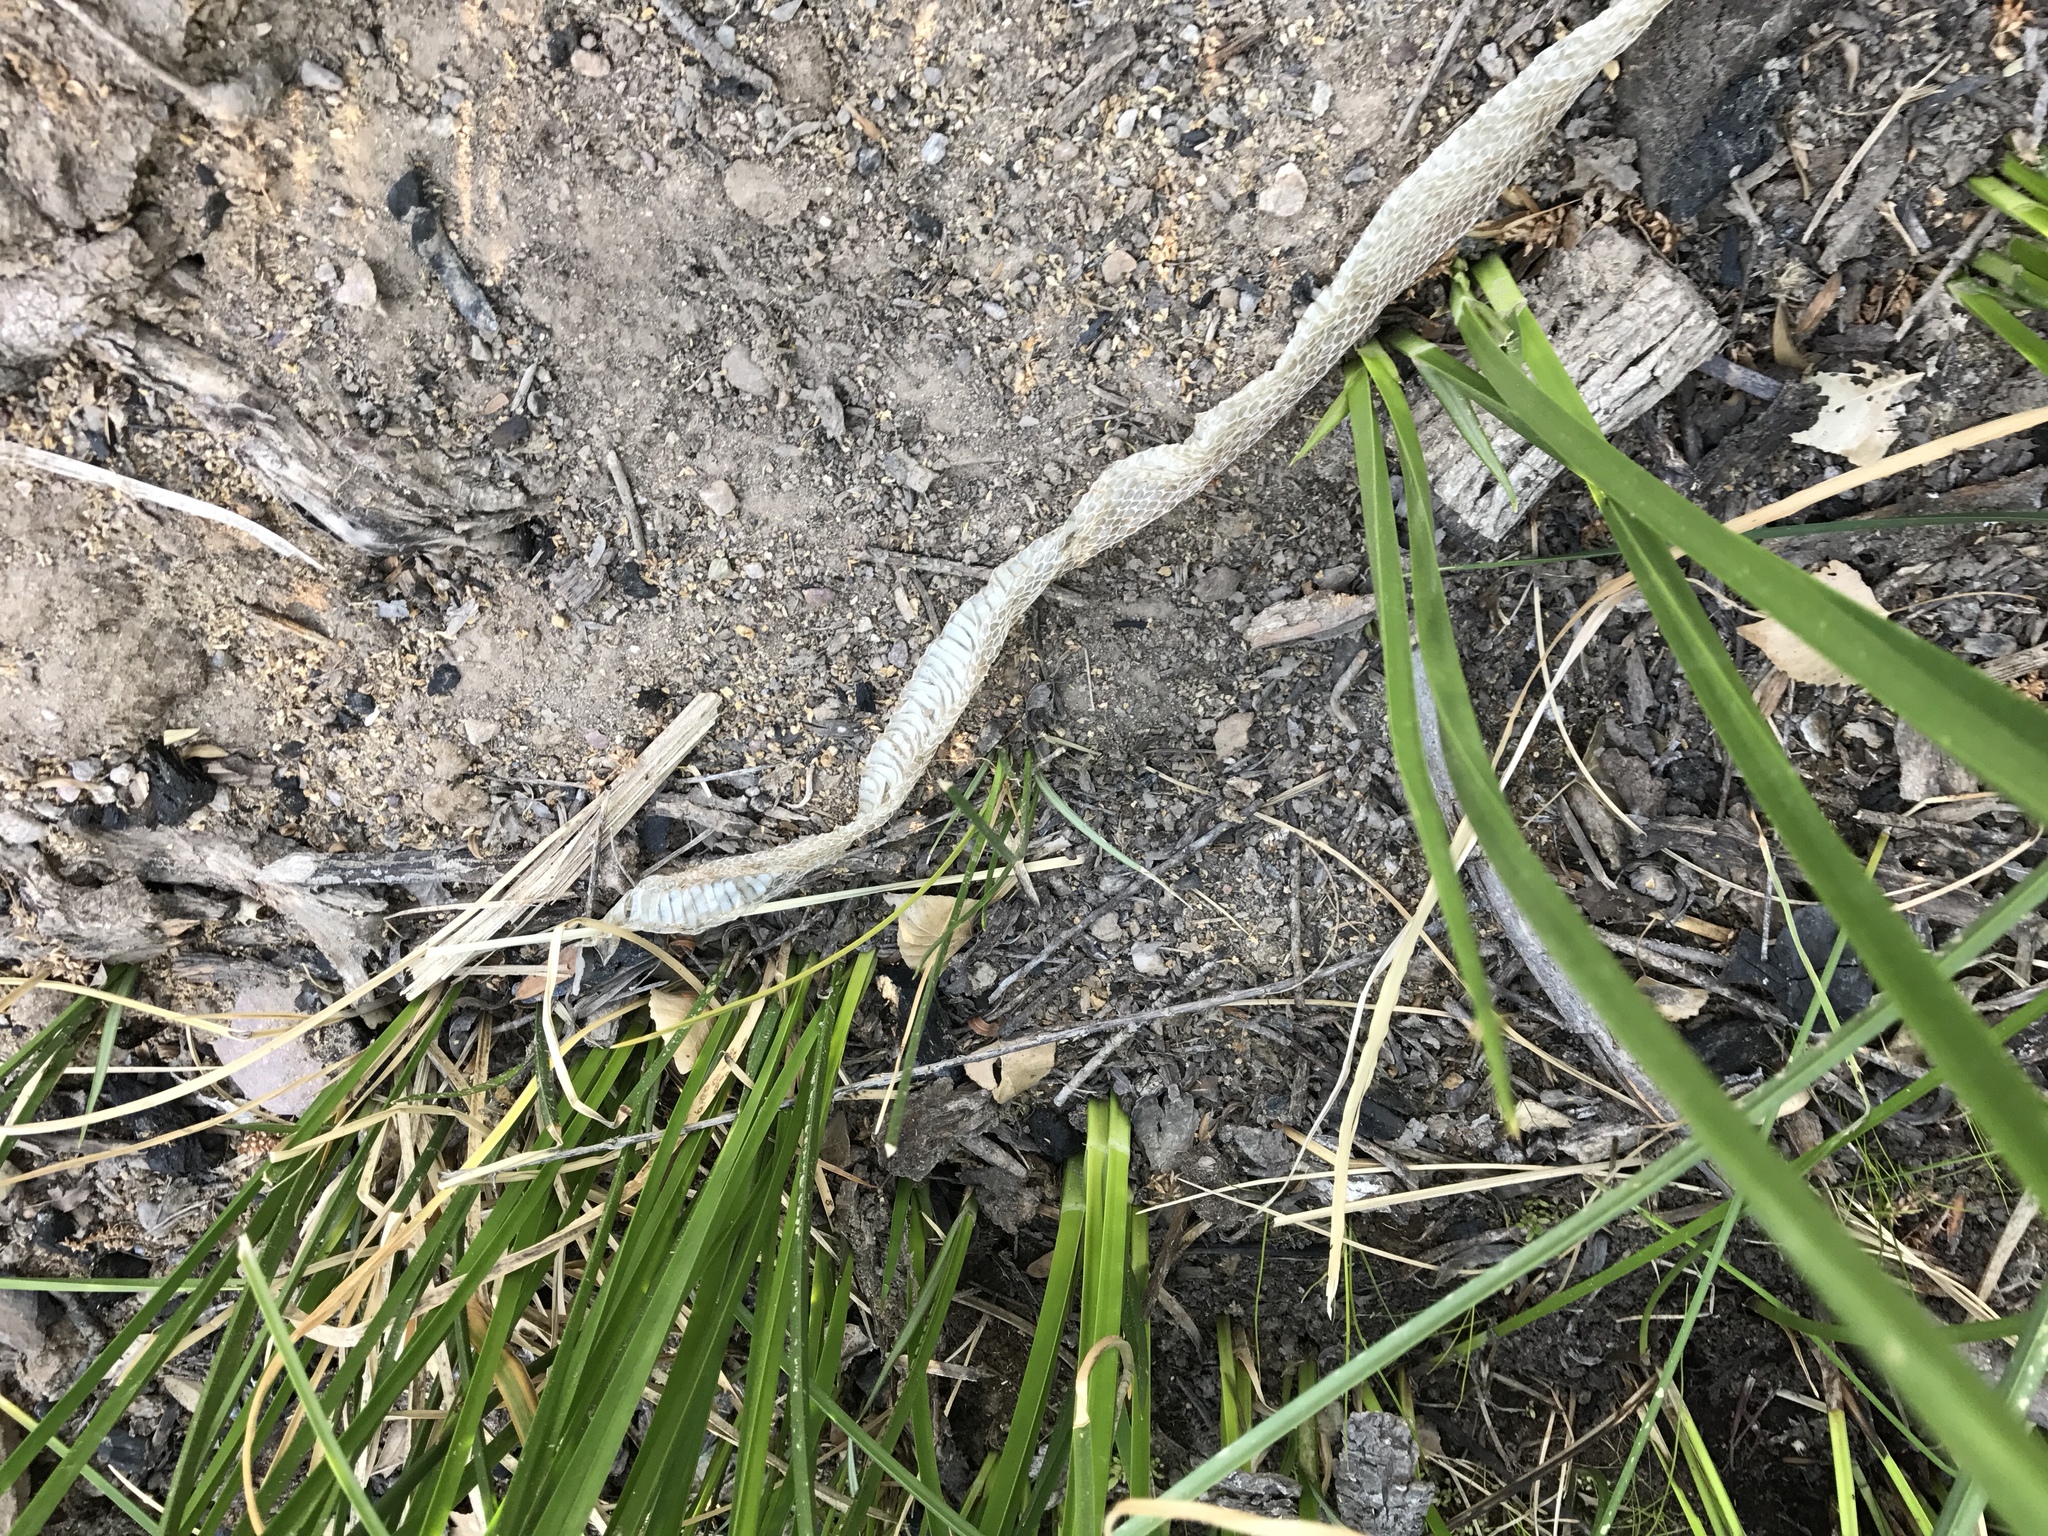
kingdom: Animalia
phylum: Chordata
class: Squamata
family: Colubridae
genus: Lampropeltis
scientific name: Lampropeltis splendida
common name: Desert kingsnake
